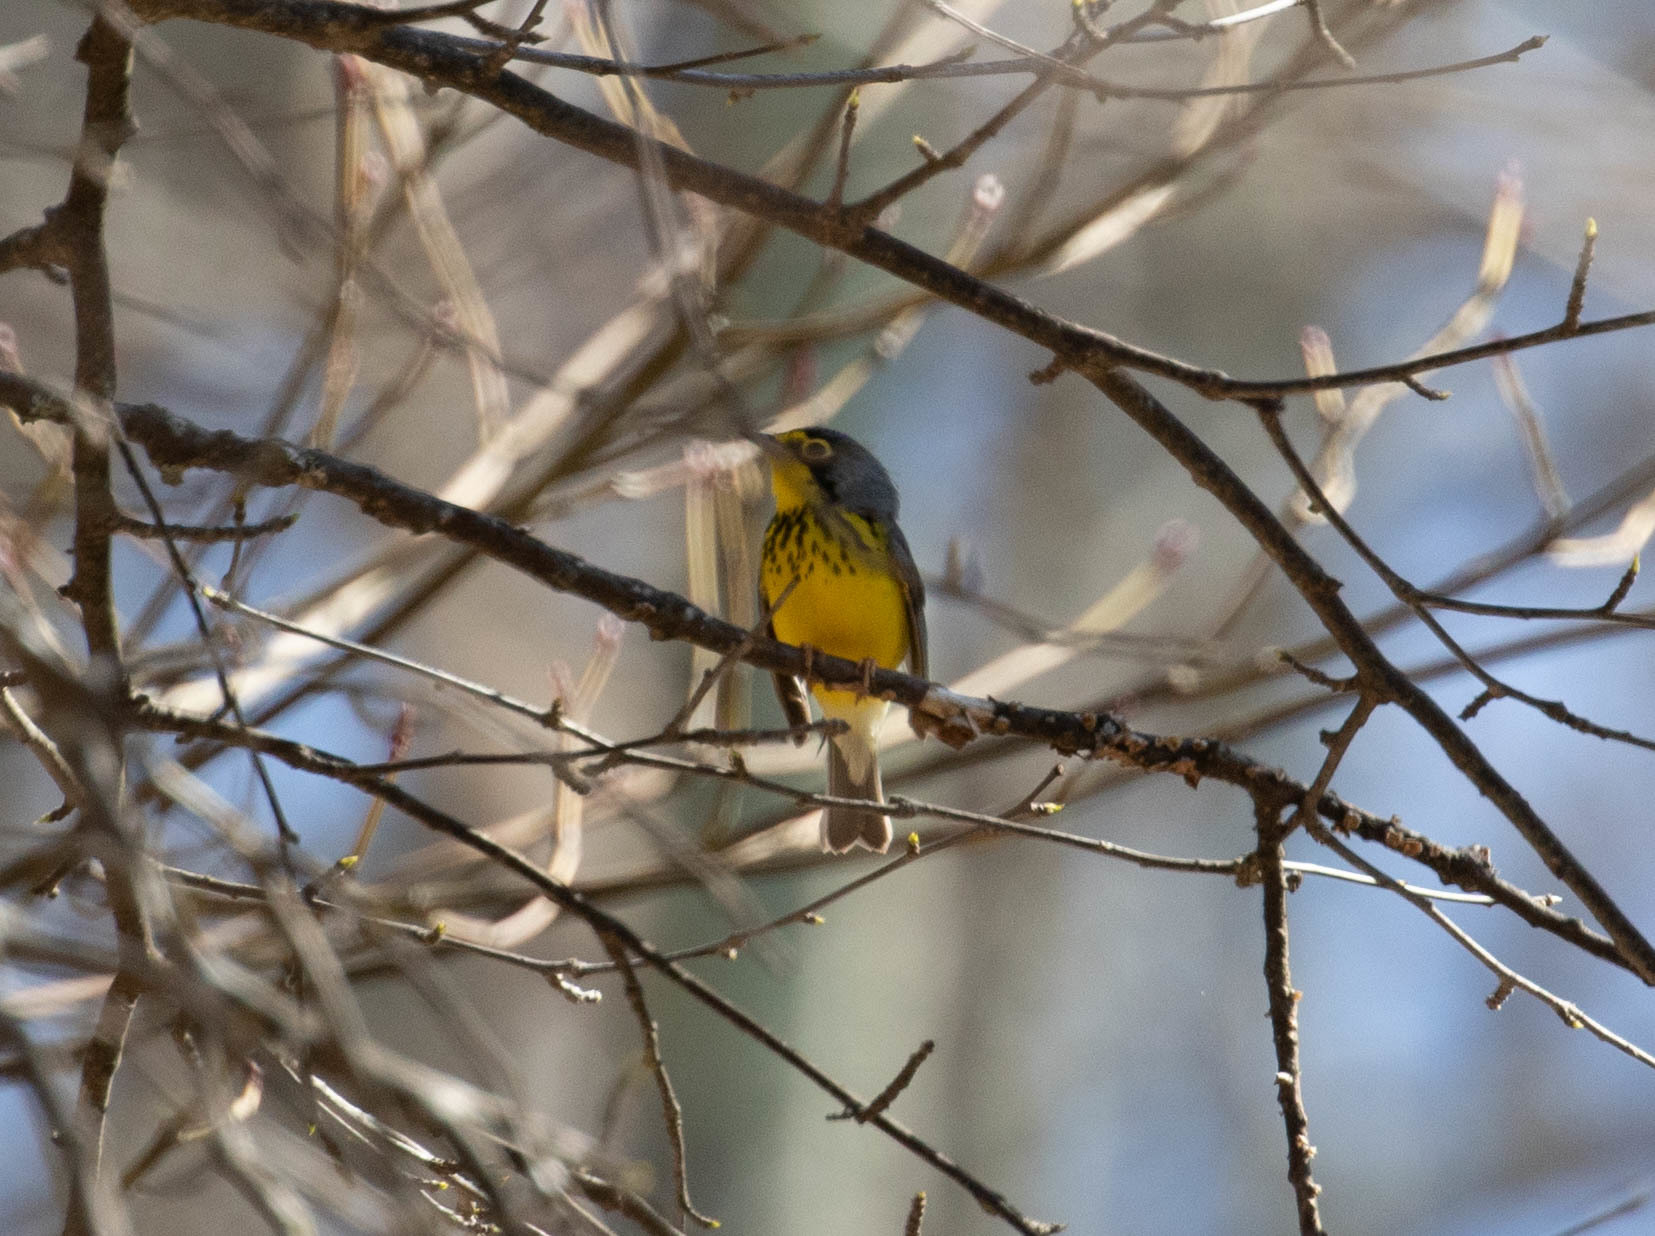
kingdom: Animalia
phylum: Chordata
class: Aves
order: Passeriformes
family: Parulidae
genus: Cardellina
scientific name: Cardellina canadensis
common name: Canada warbler
